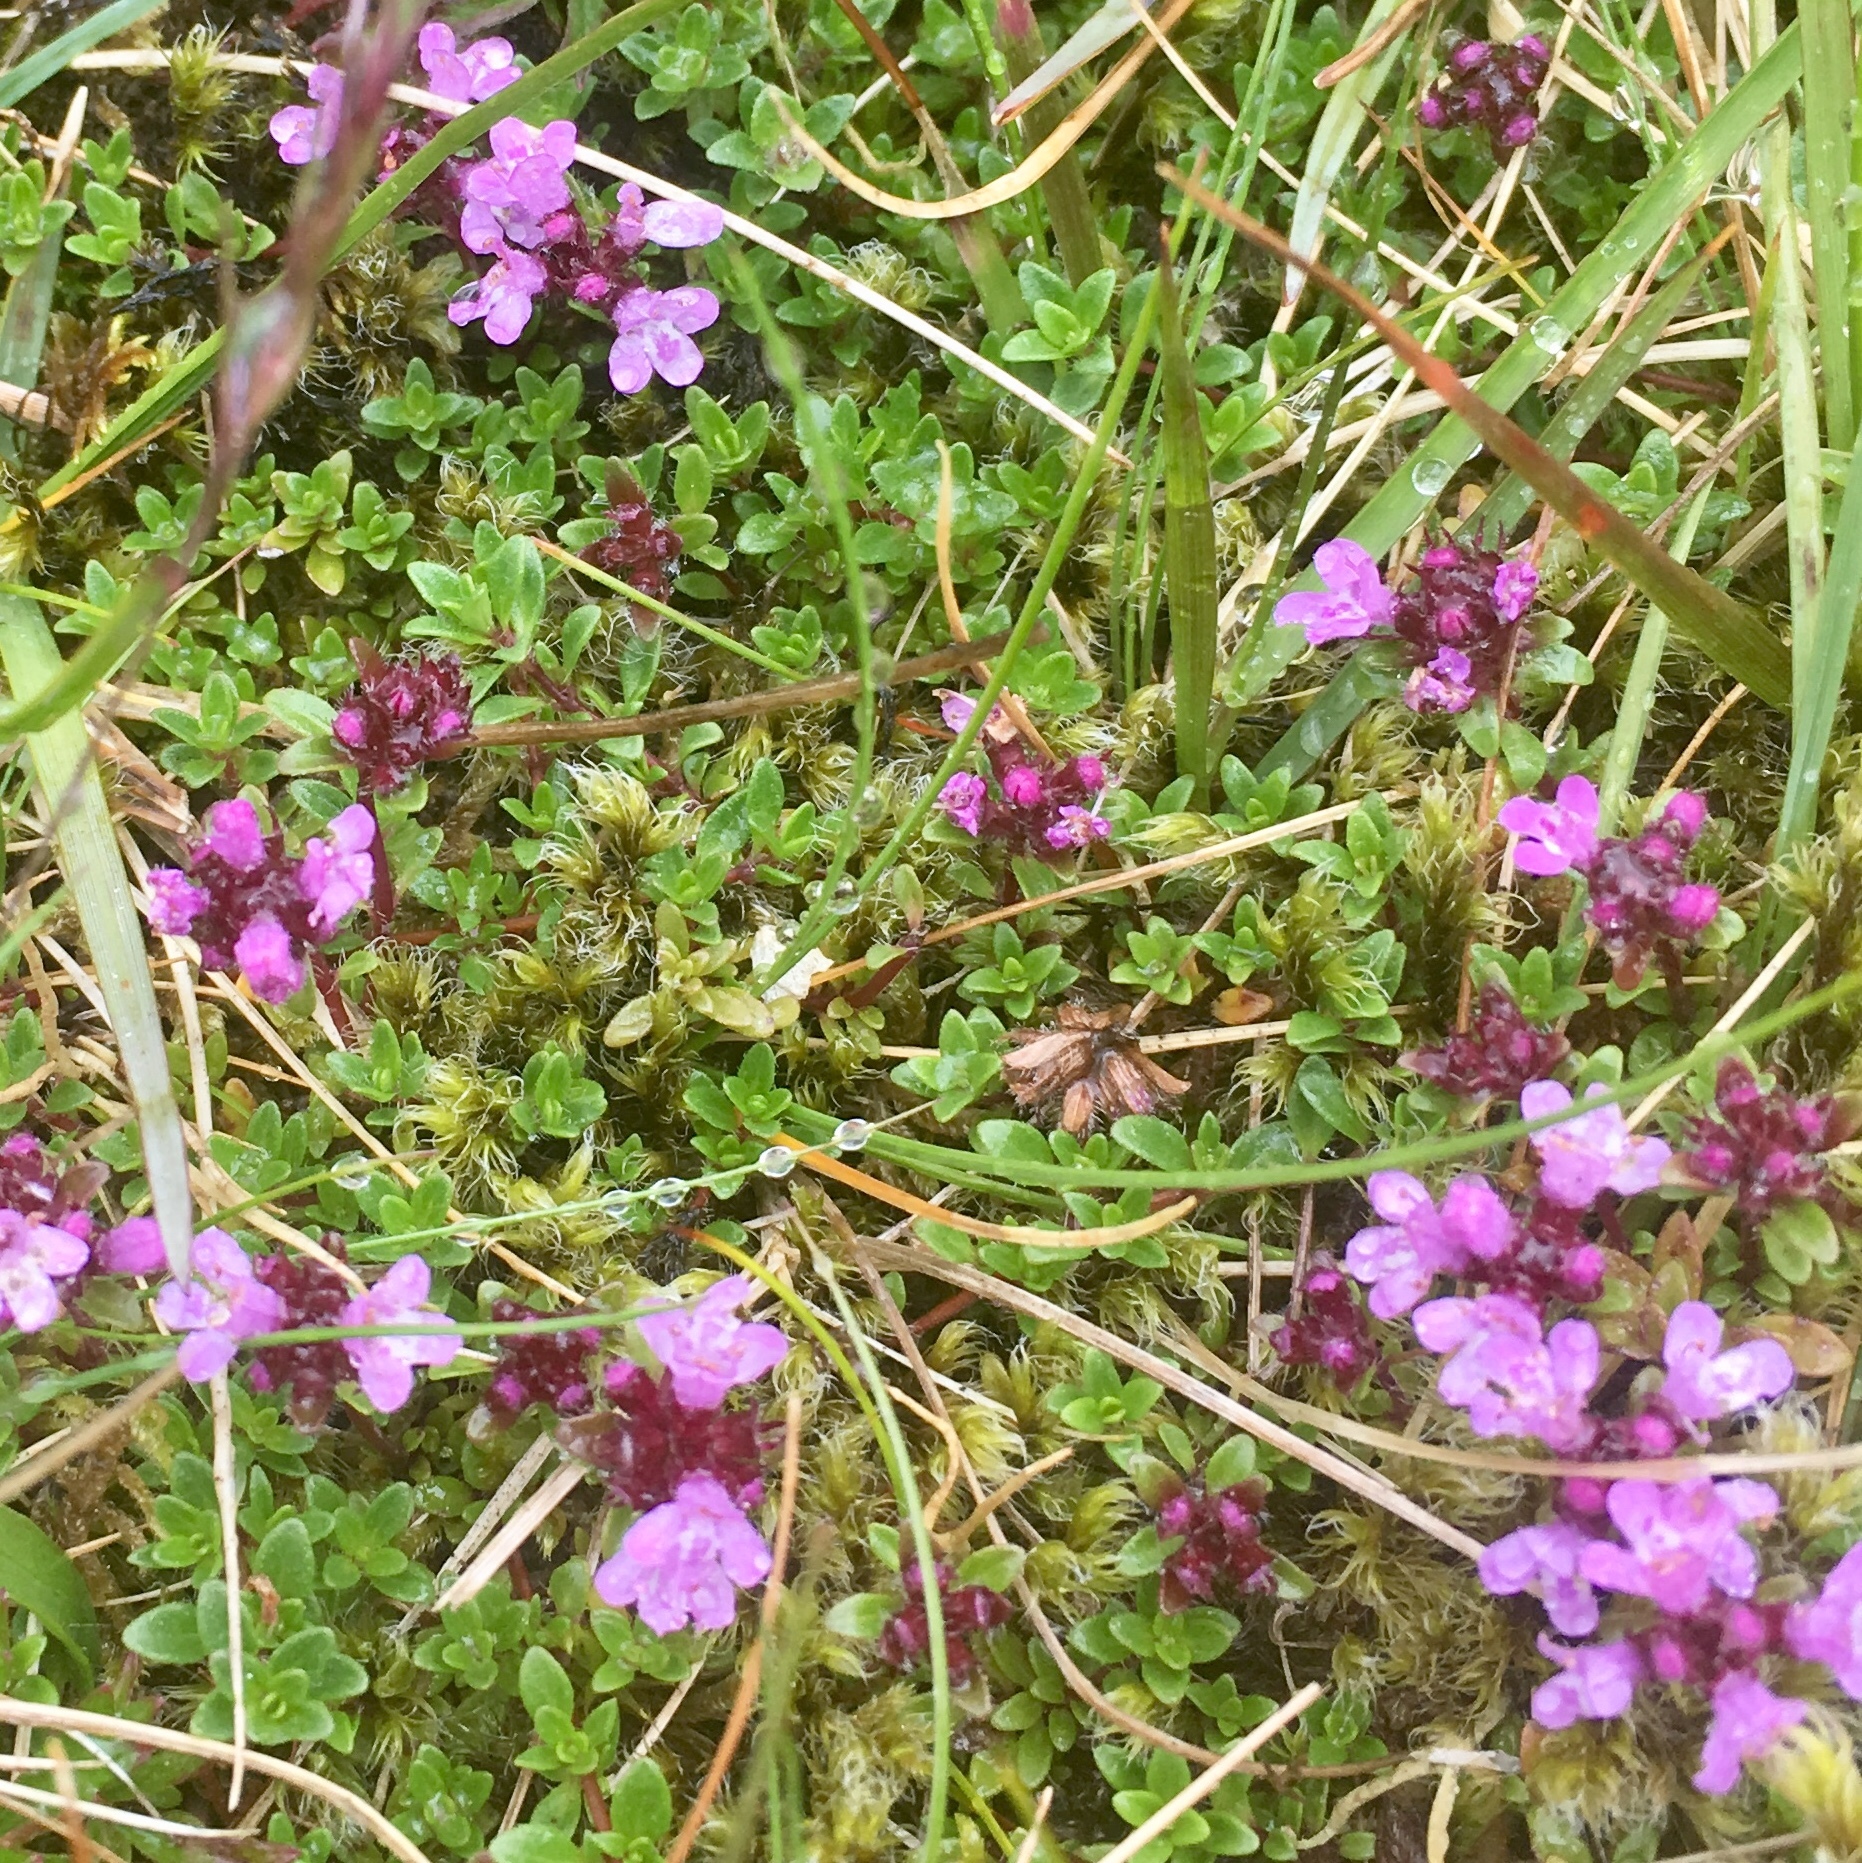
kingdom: Plantae
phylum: Tracheophyta
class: Magnoliopsida
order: Lamiales
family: Lamiaceae
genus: Thymus
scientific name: Thymus praecox
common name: Wild thyme
